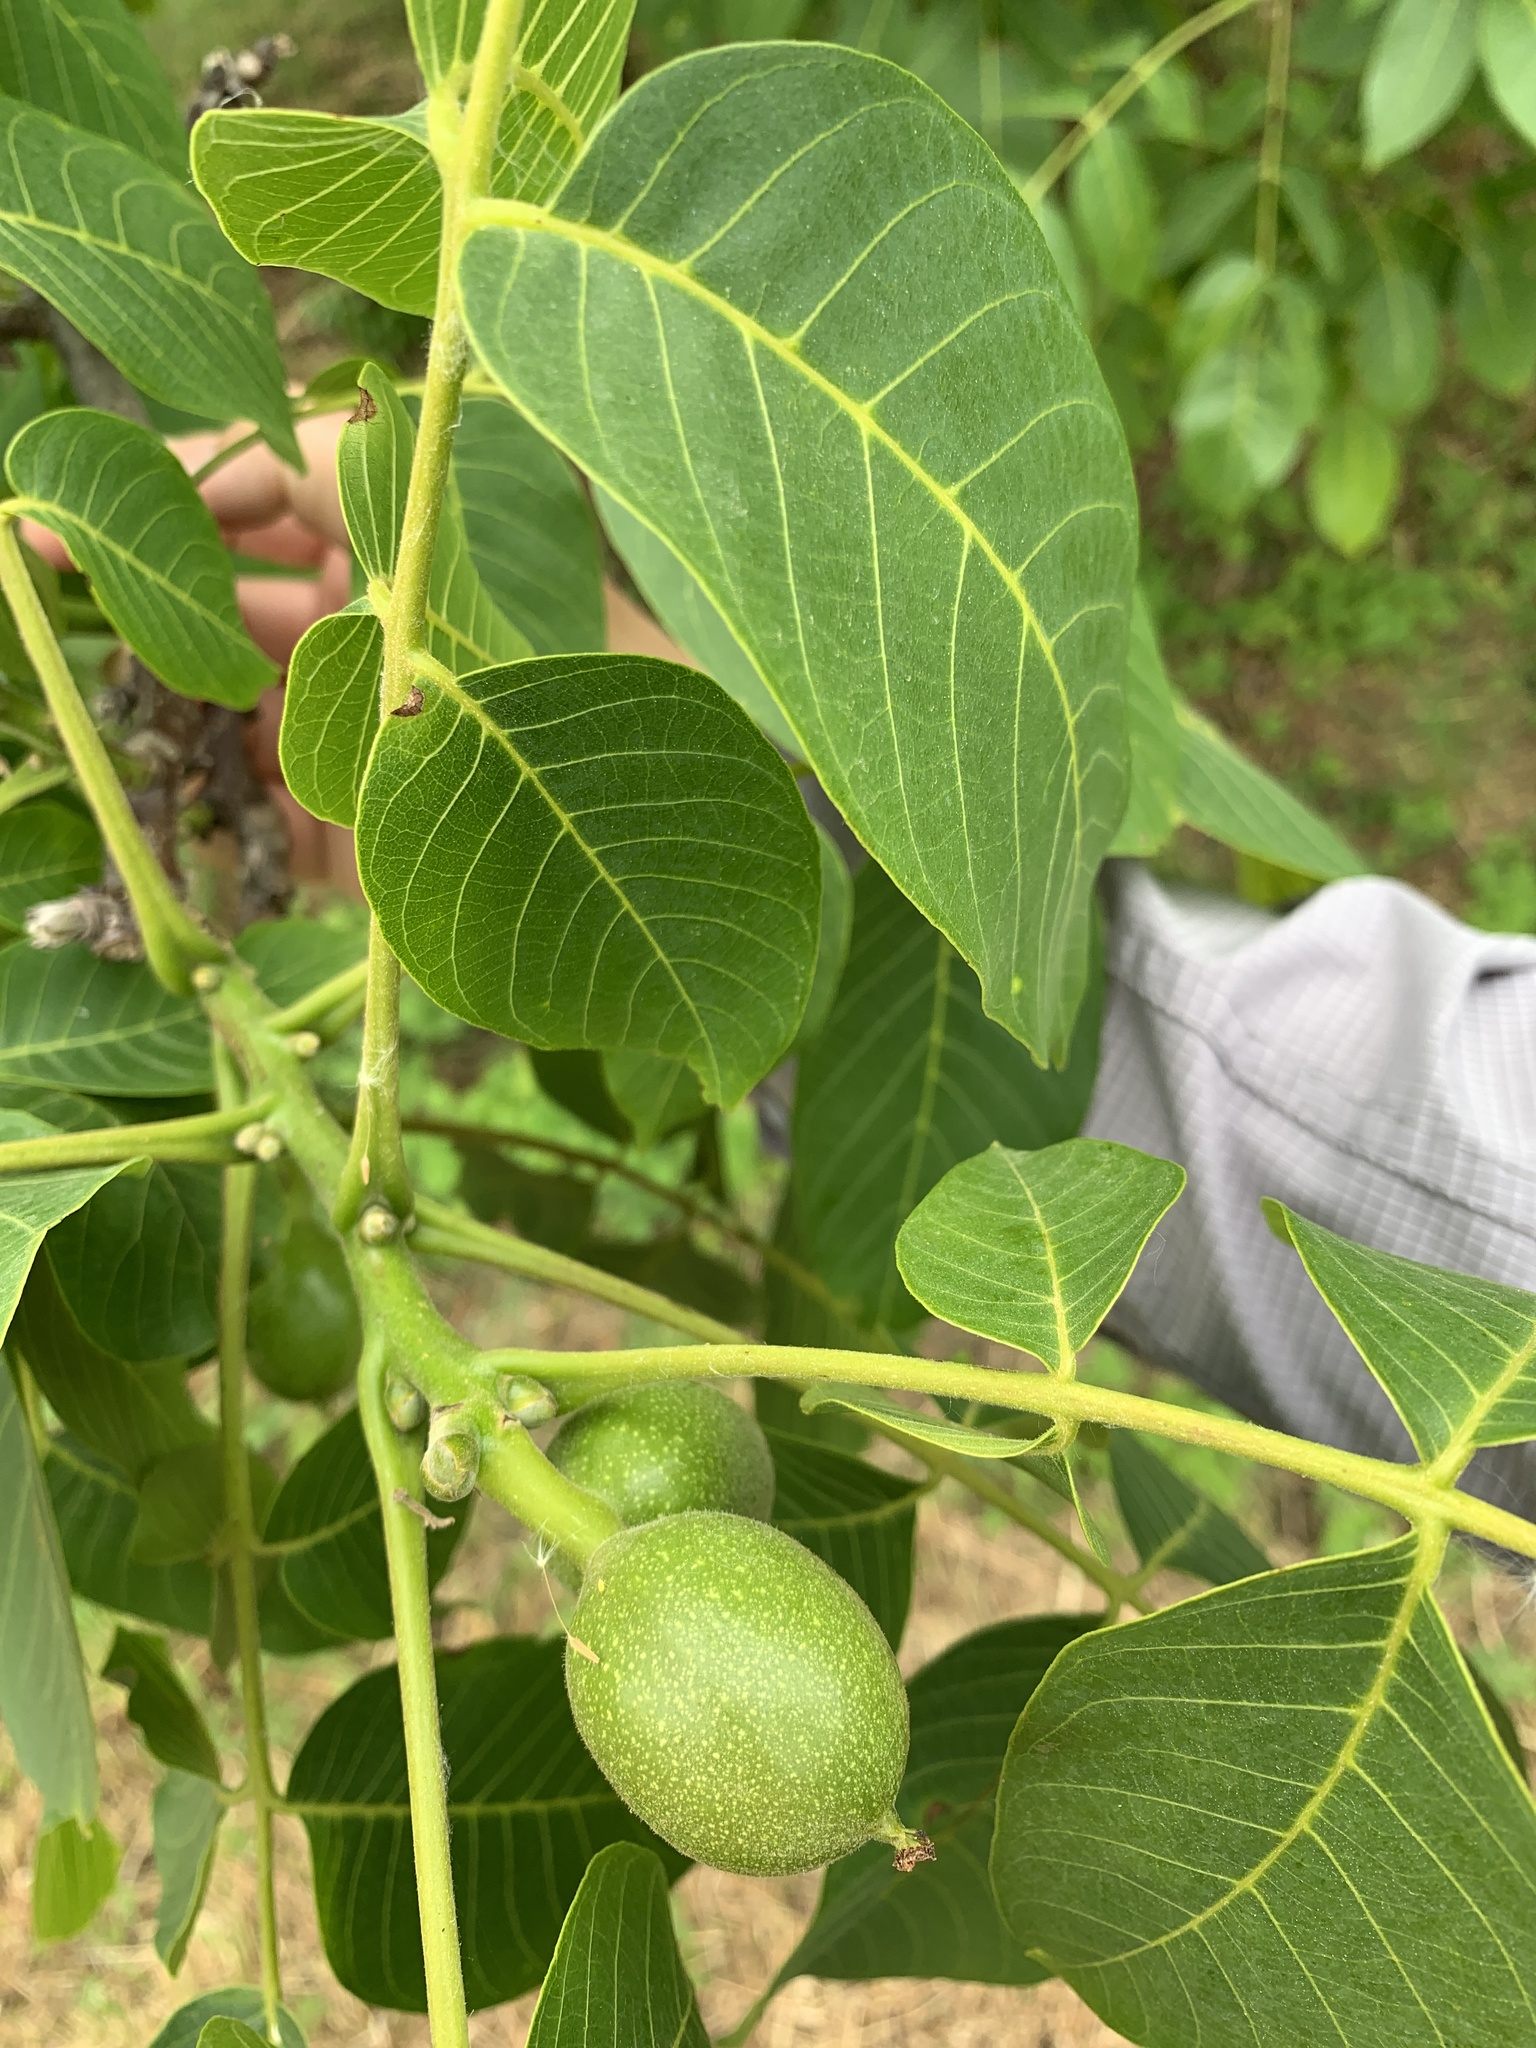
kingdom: Plantae
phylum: Tracheophyta
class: Magnoliopsida
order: Fagales
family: Juglandaceae
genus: Juglans
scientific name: Juglans regia
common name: Walnut
